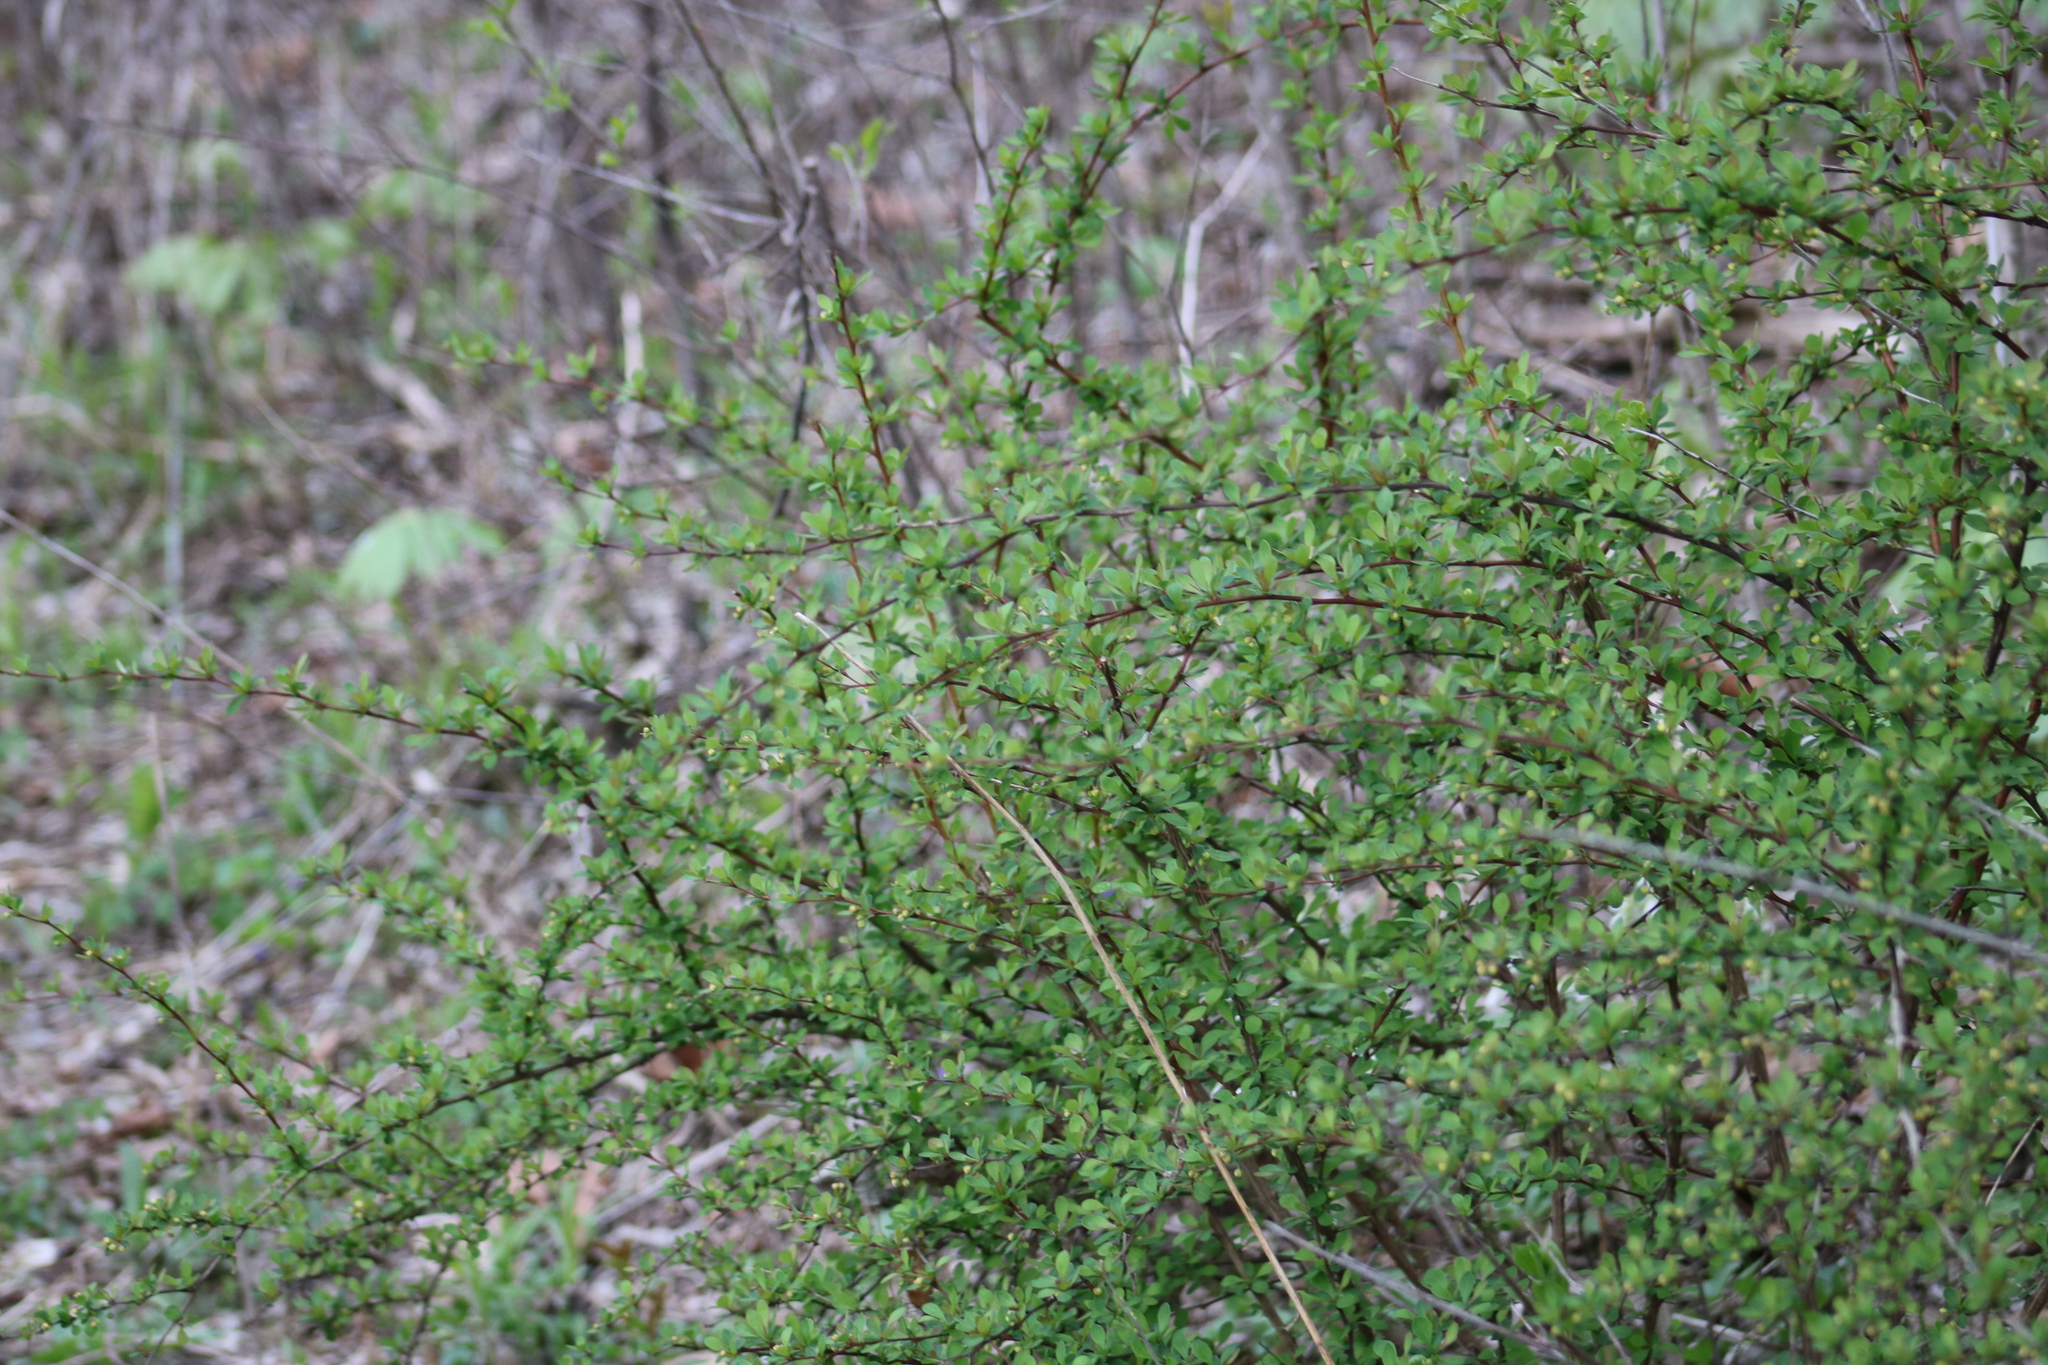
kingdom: Plantae
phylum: Tracheophyta
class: Magnoliopsida
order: Ranunculales
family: Berberidaceae
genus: Berberis
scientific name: Berberis thunbergii
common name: Japanese barberry
